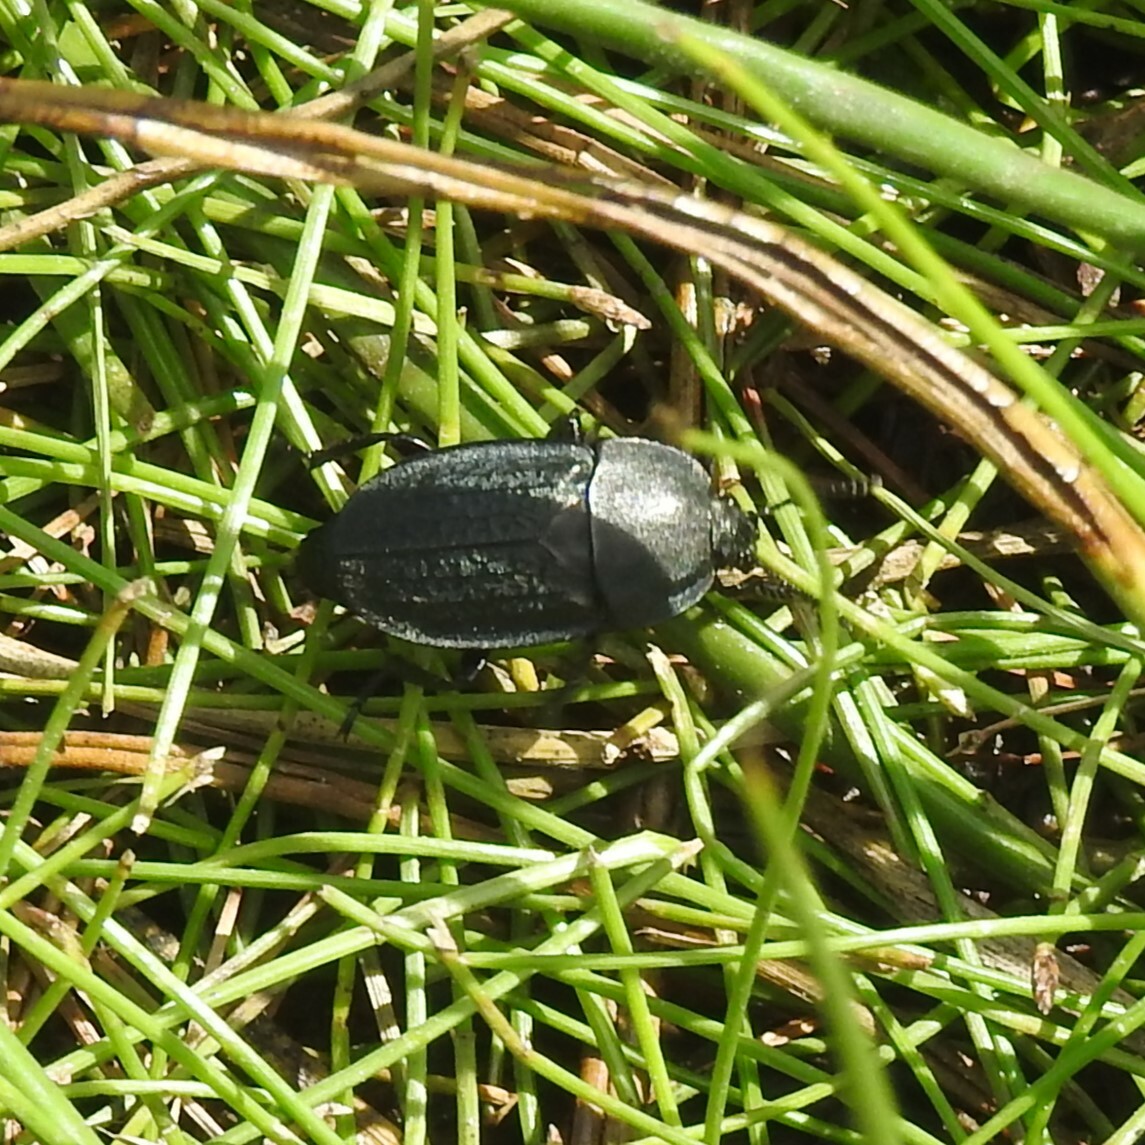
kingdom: Animalia
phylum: Arthropoda
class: Insecta
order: Coleoptera
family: Staphylinidae
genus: Heterosilpha
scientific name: Heterosilpha ramosa
